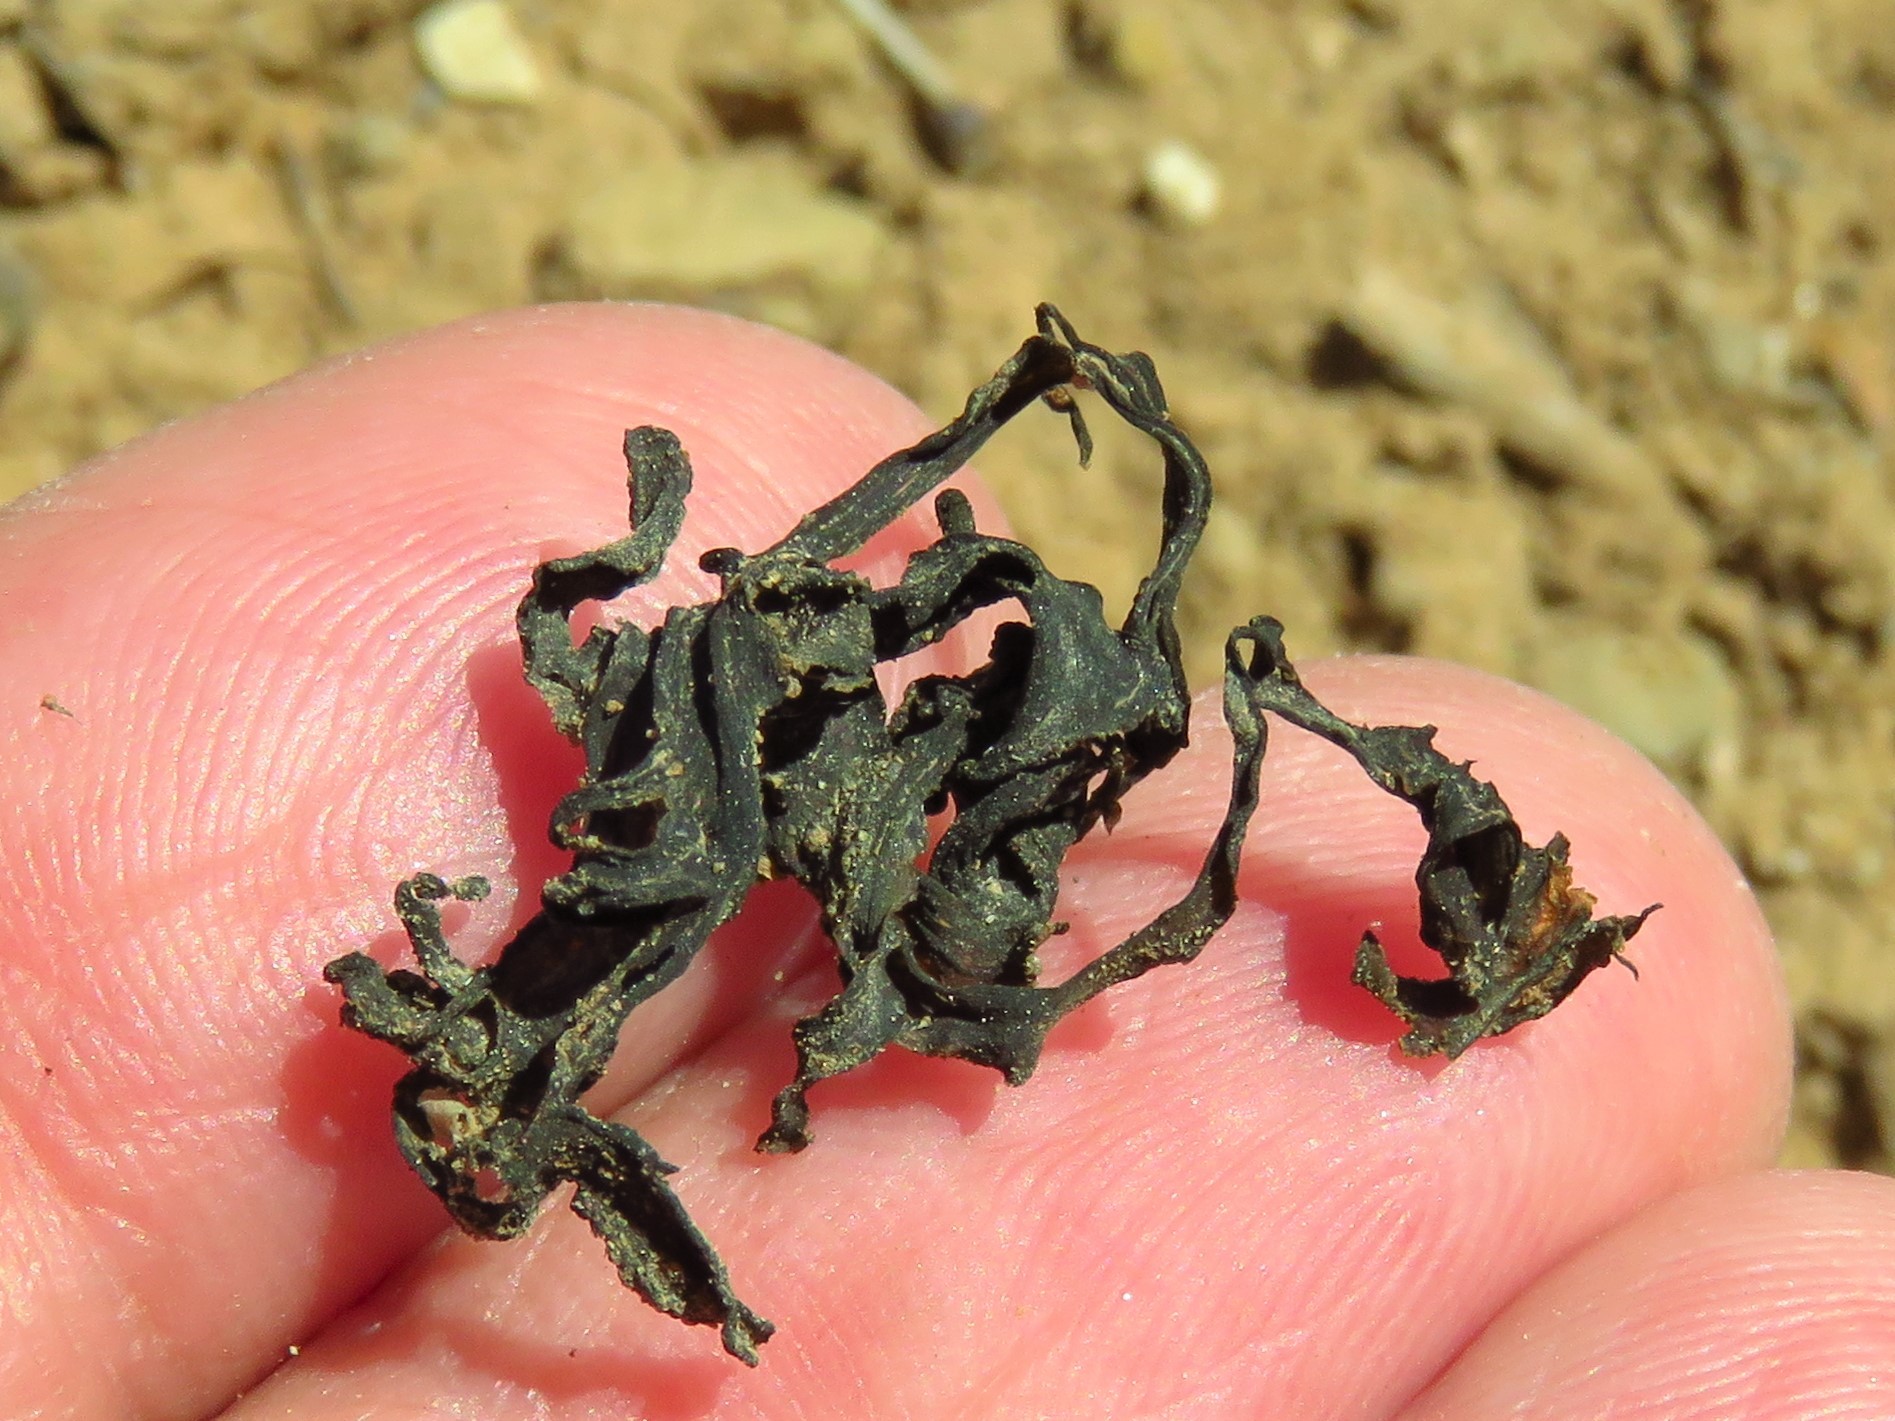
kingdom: Bacteria
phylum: Cyanobacteria
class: Cyanobacteriia
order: Cyanobacteriales
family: Nostocaceae
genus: Nostoc
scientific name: Nostoc commune
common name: Star jelly
